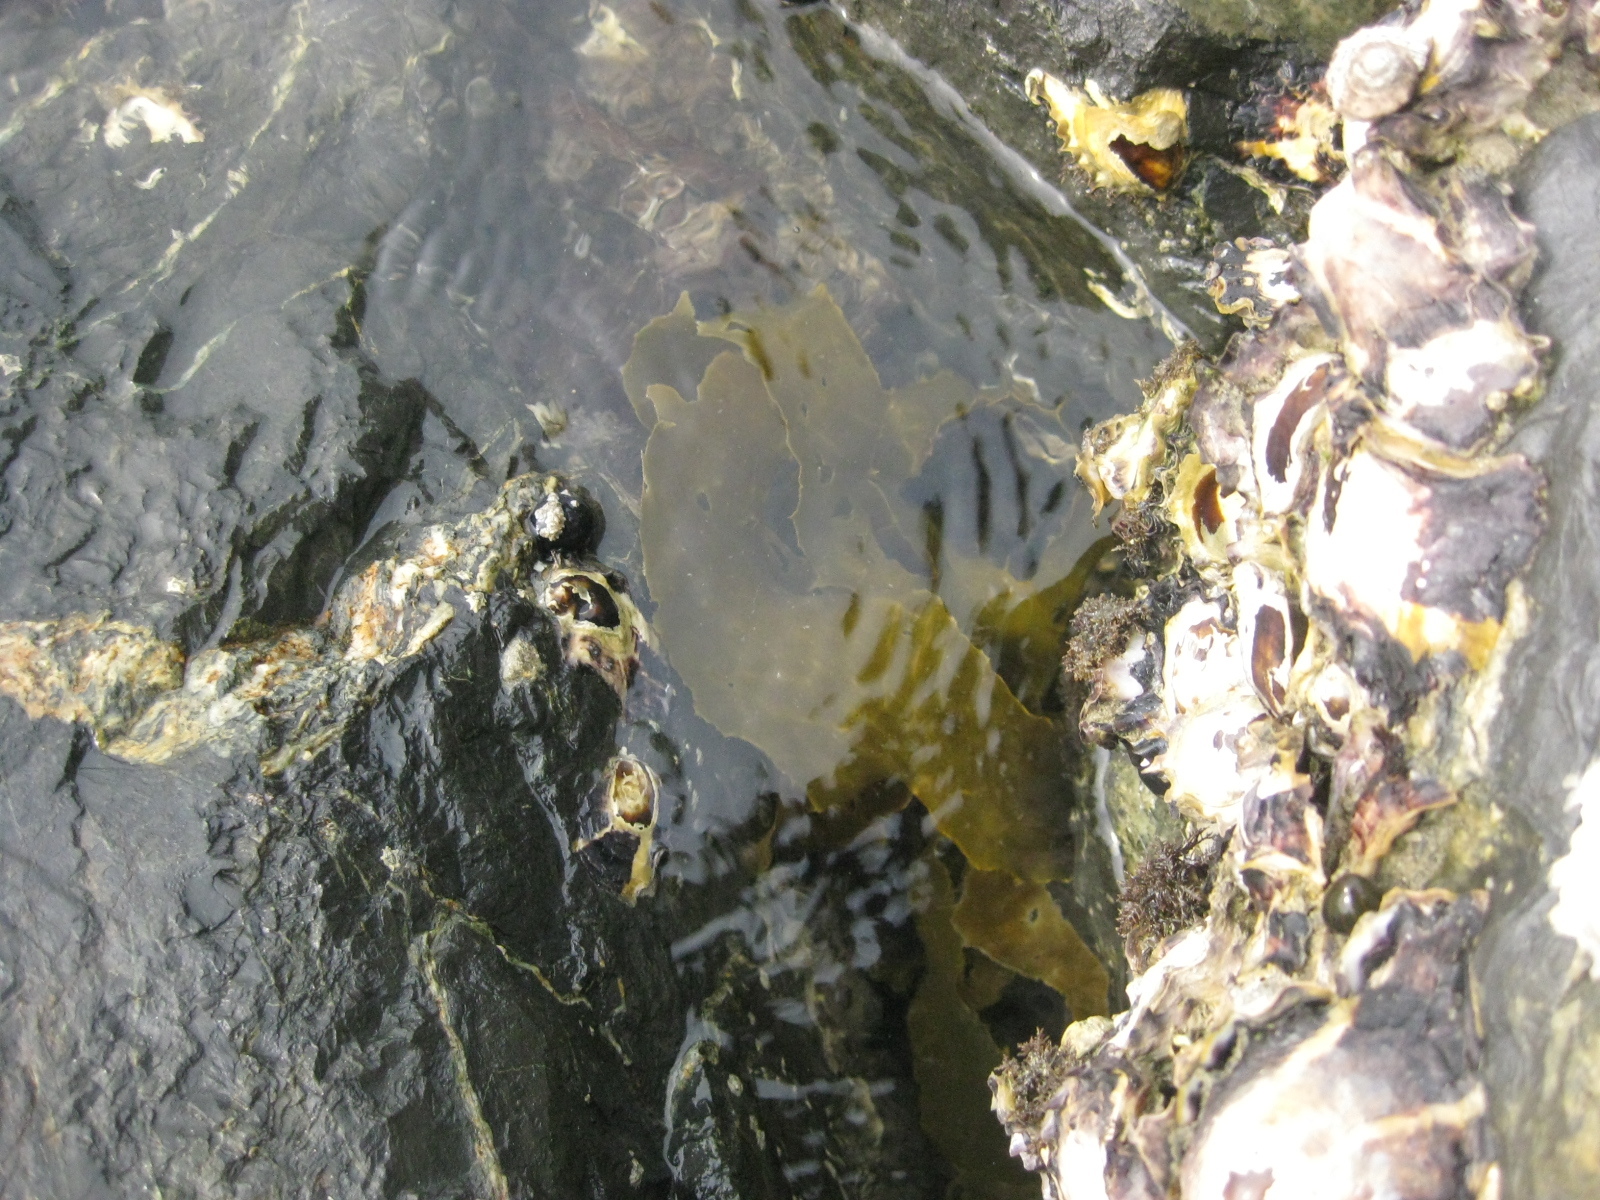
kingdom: Chromista
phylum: Ochrophyta
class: Phaeophyceae
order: Laminariales
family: Lessoniaceae
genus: Ecklonia
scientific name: Ecklonia radiata
